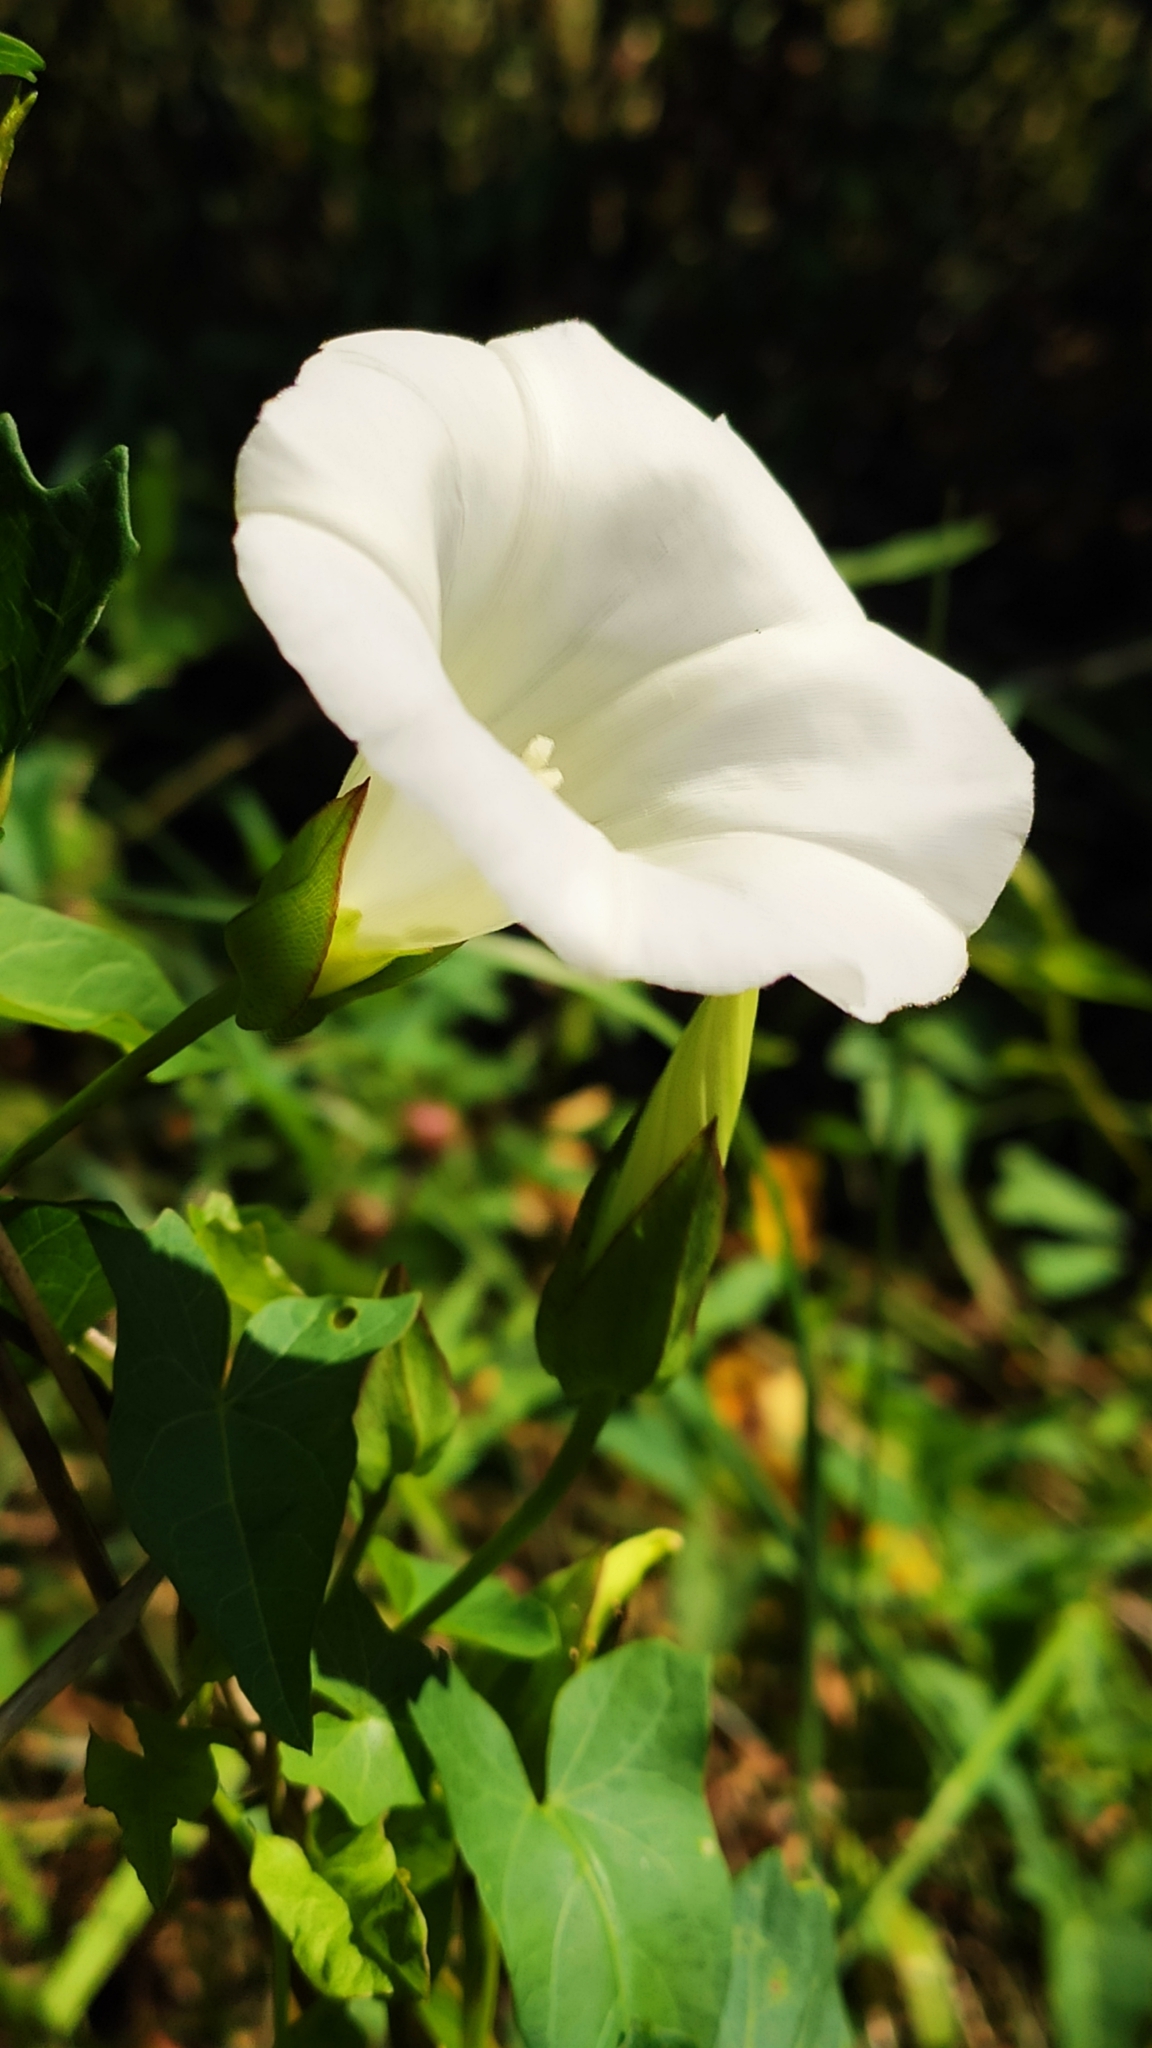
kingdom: Plantae
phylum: Tracheophyta
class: Magnoliopsida
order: Solanales
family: Convolvulaceae
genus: Calystegia
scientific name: Calystegia sepium
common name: Hedge bindweed
